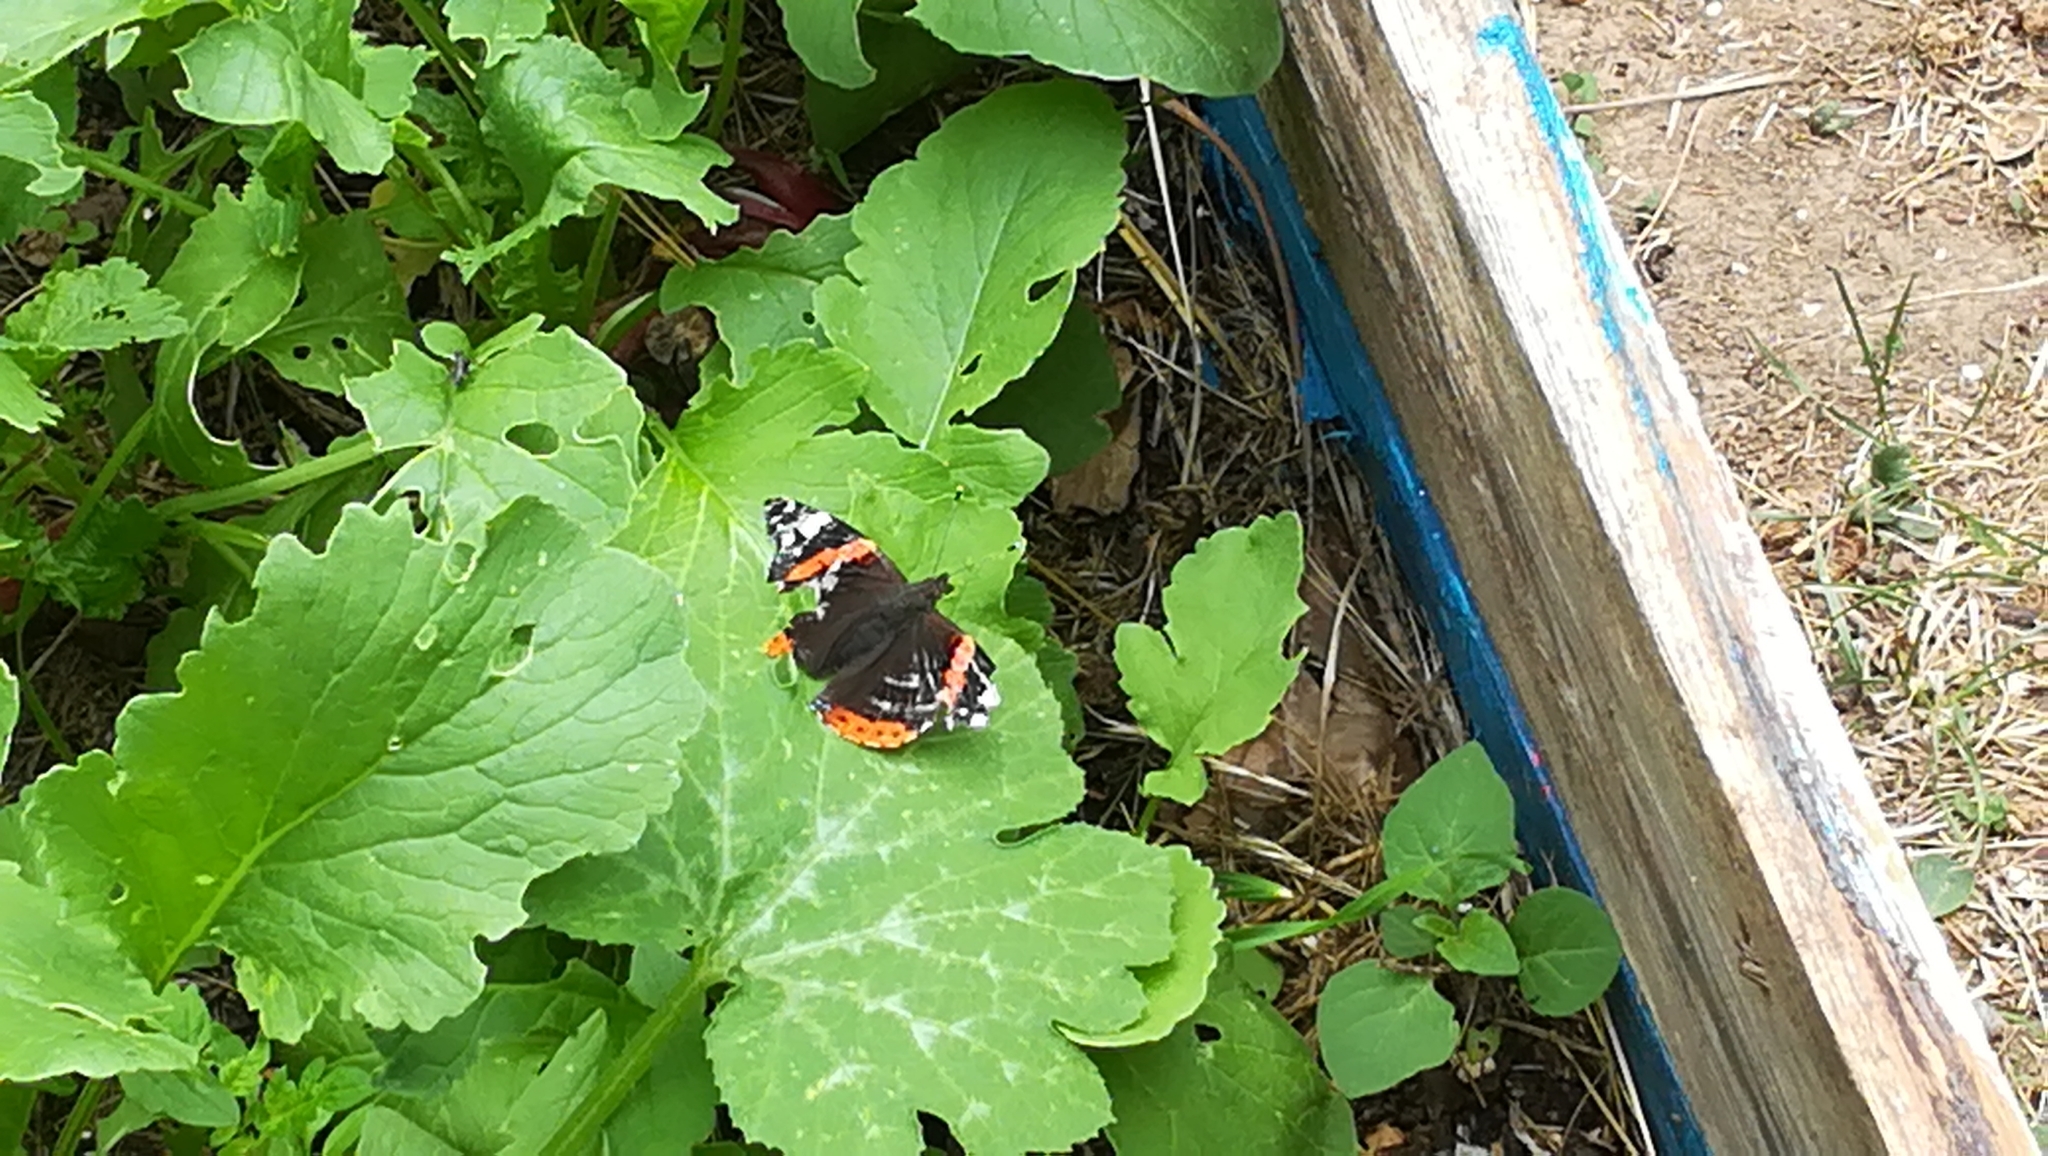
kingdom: Animalia
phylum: Arthropoda
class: Insecta
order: Lepidoptera
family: Nymphalidae
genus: Vanessa
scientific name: Vanessa atalanta
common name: Red admiral
